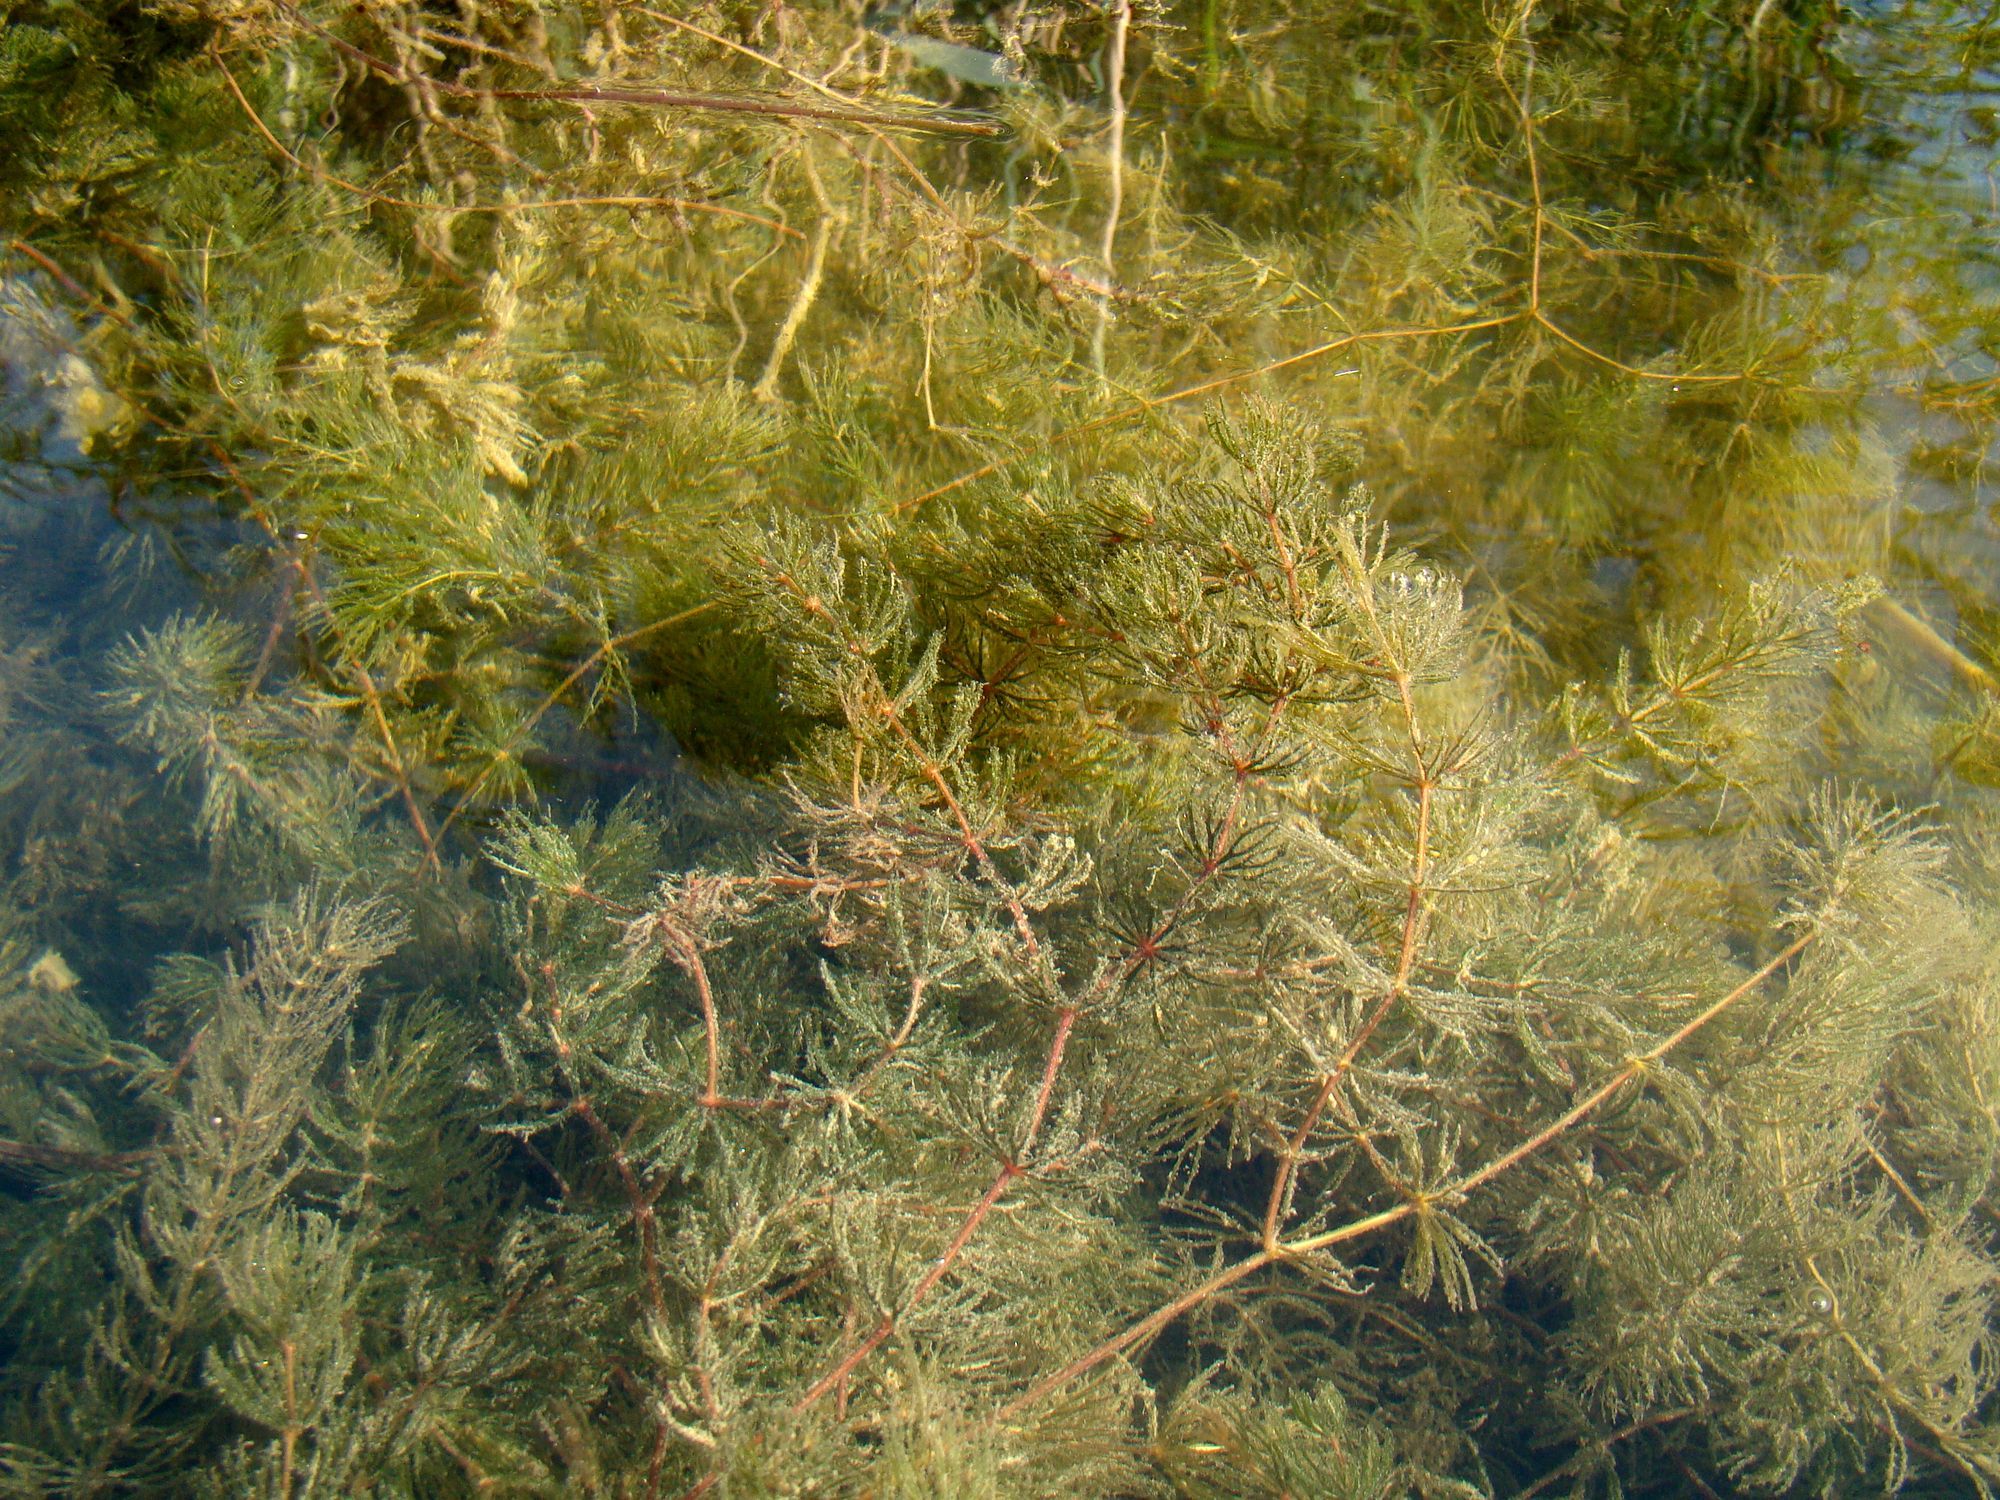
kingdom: Plantae
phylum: Tracheophyta
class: Magnoliopsida
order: Saxifragales
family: Haloragaceae
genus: Myriophyllum
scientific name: Myriophyllum spicatum
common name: Spiked water-milfoil
